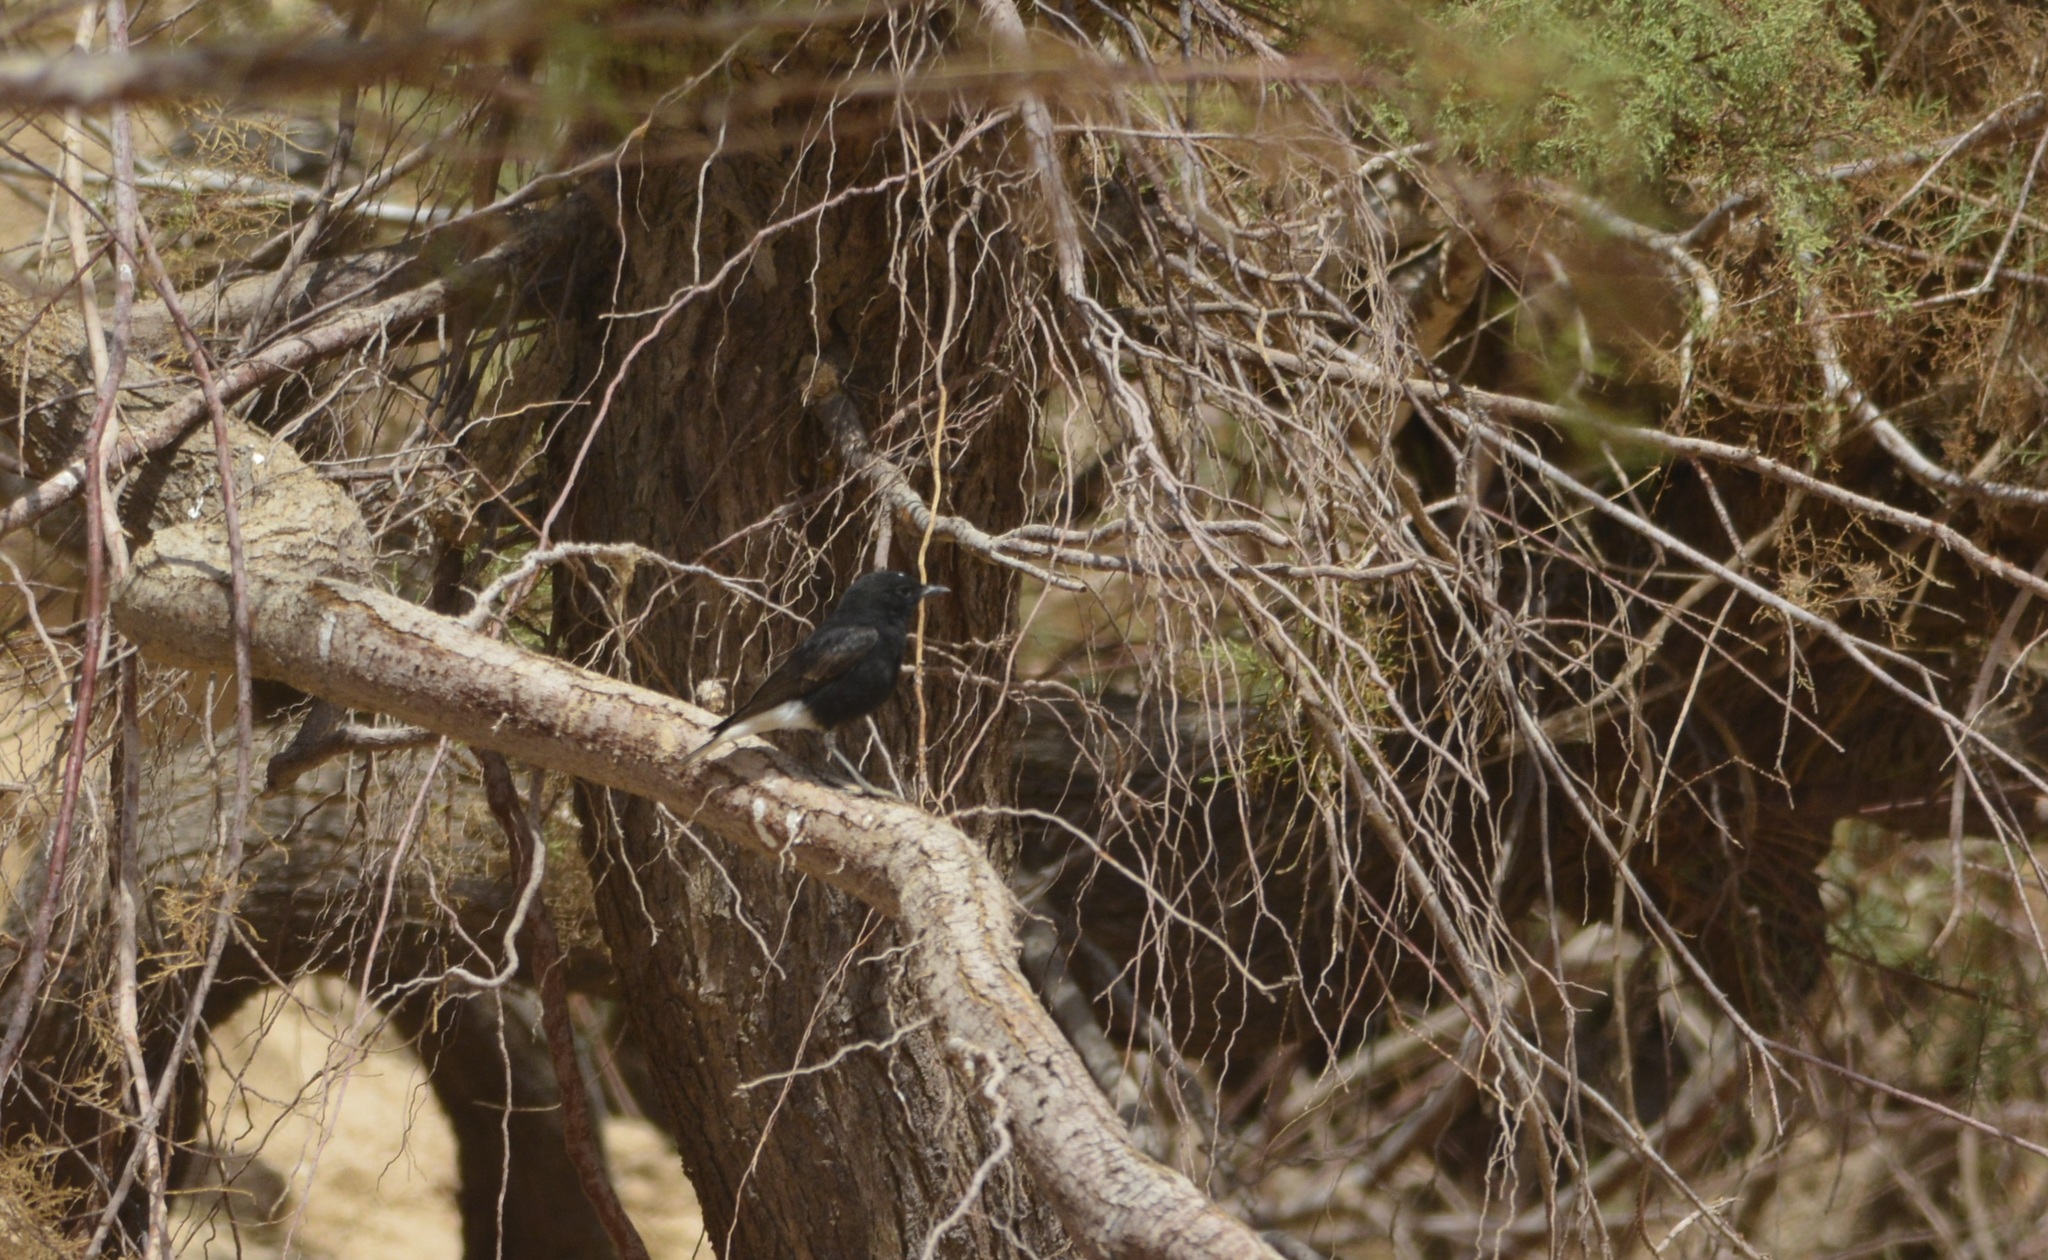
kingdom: Animalia
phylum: Chordata
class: Aves
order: Passeriformes
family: Muscicapidae
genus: Oenanthe
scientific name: Oenanthe leucopyga
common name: White-crowned wheatear
